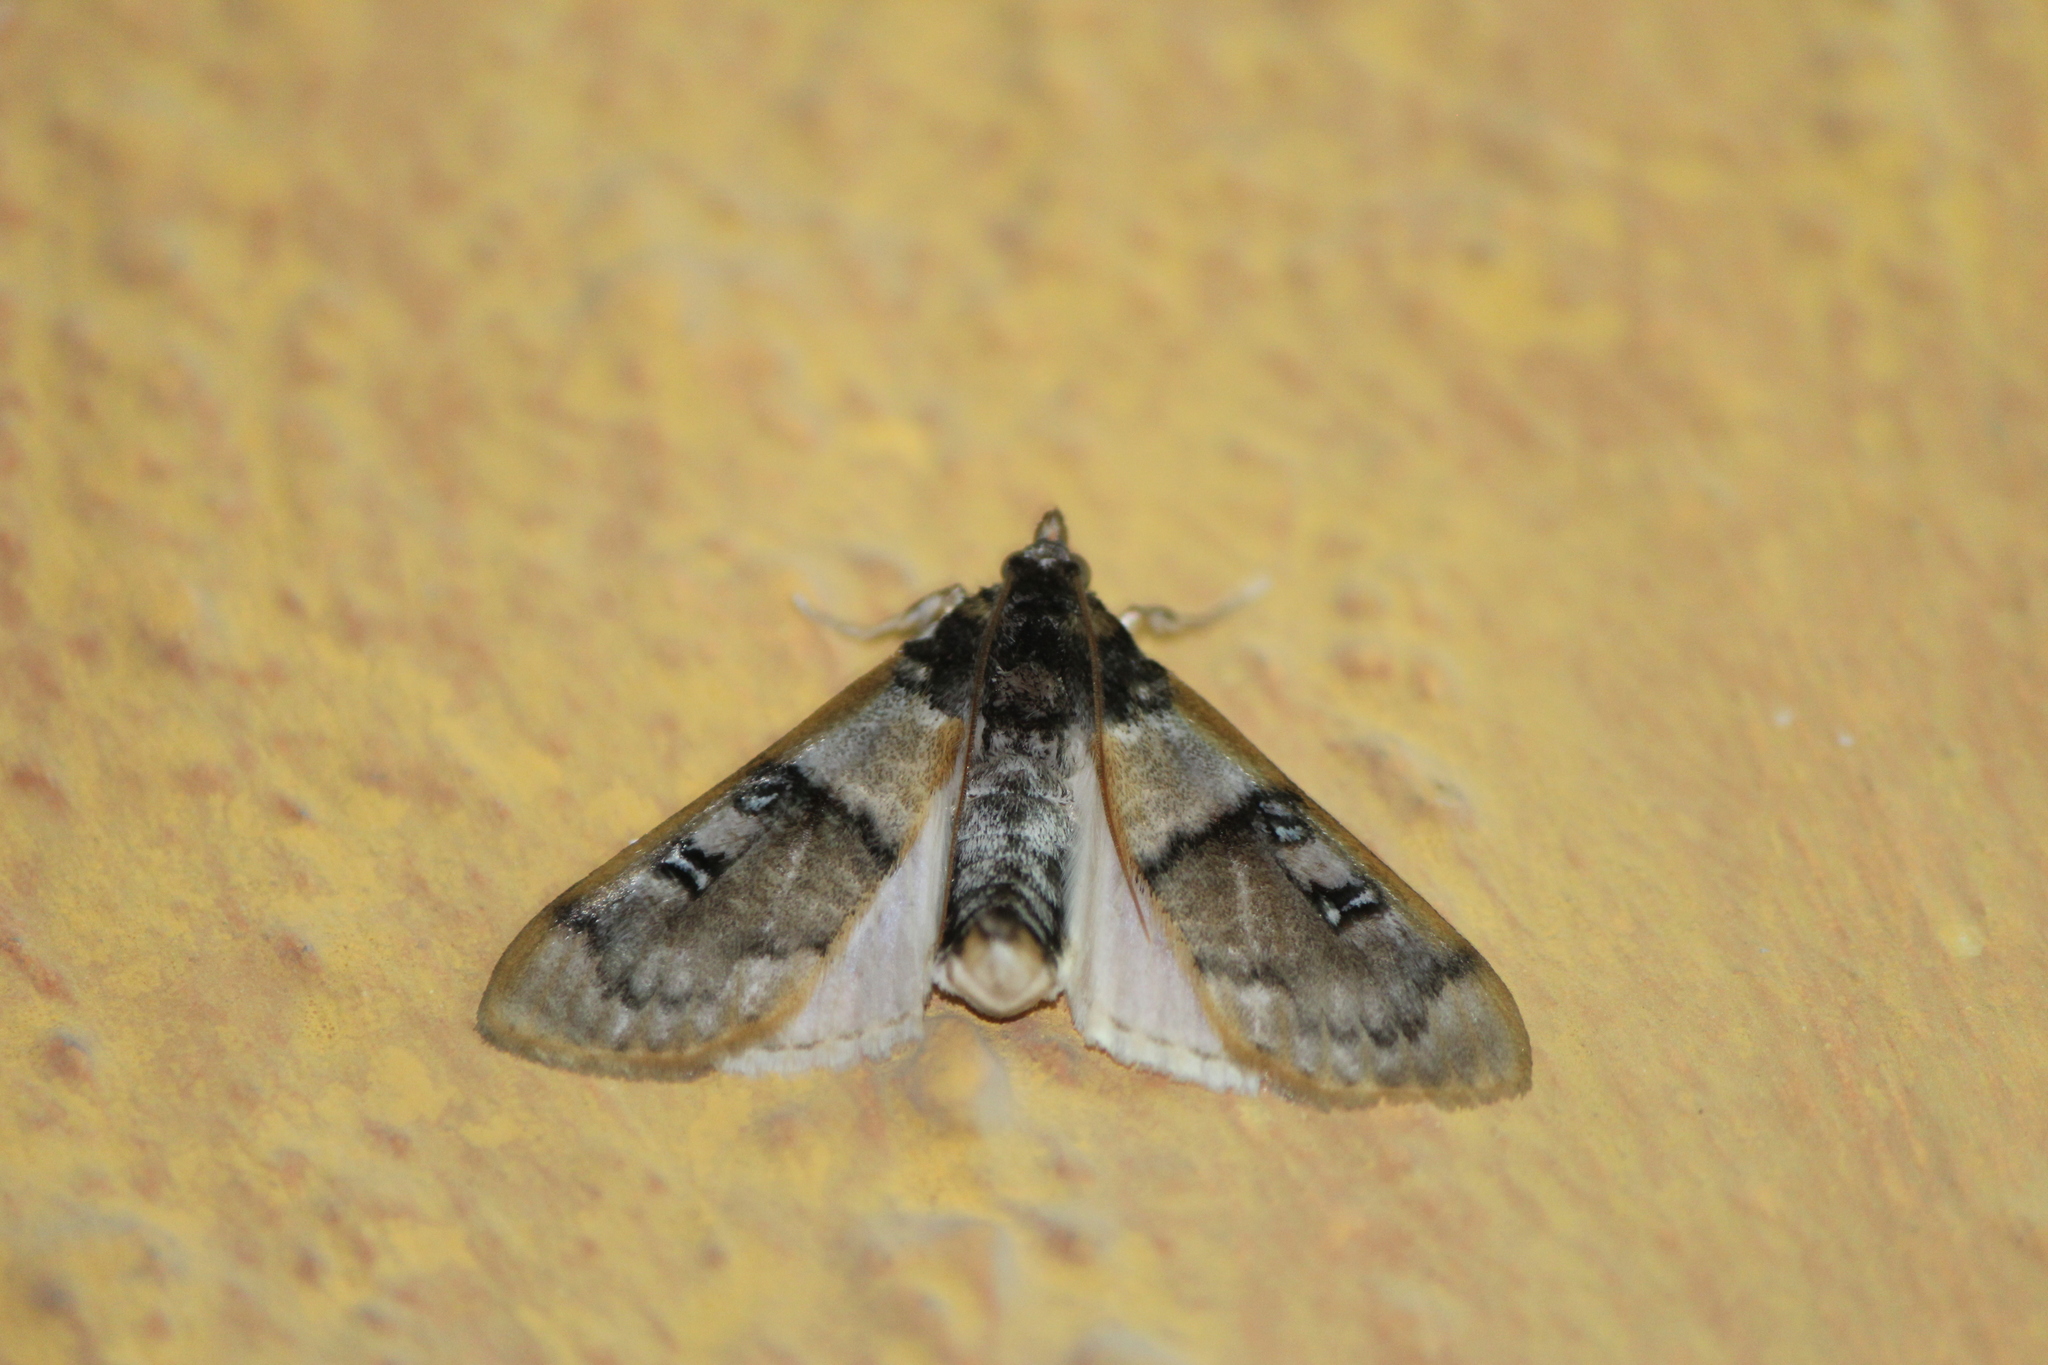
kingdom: Animalia
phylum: Arthropoda
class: Insecta
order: Lepidoptera
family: Crambidae
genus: Laniifera
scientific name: Laniifera cyclades
